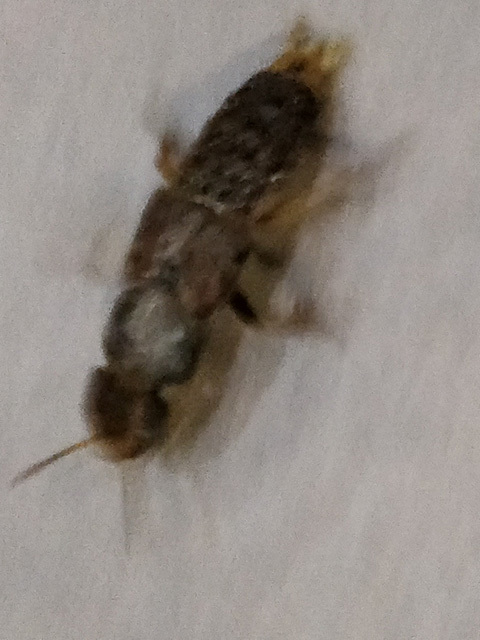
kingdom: Animalia
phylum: Arthropoda
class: Insecta
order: Coleoptera
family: Staphylinidae
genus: Platydracus
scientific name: Platydracus maculosus
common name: Brown rove beetle
